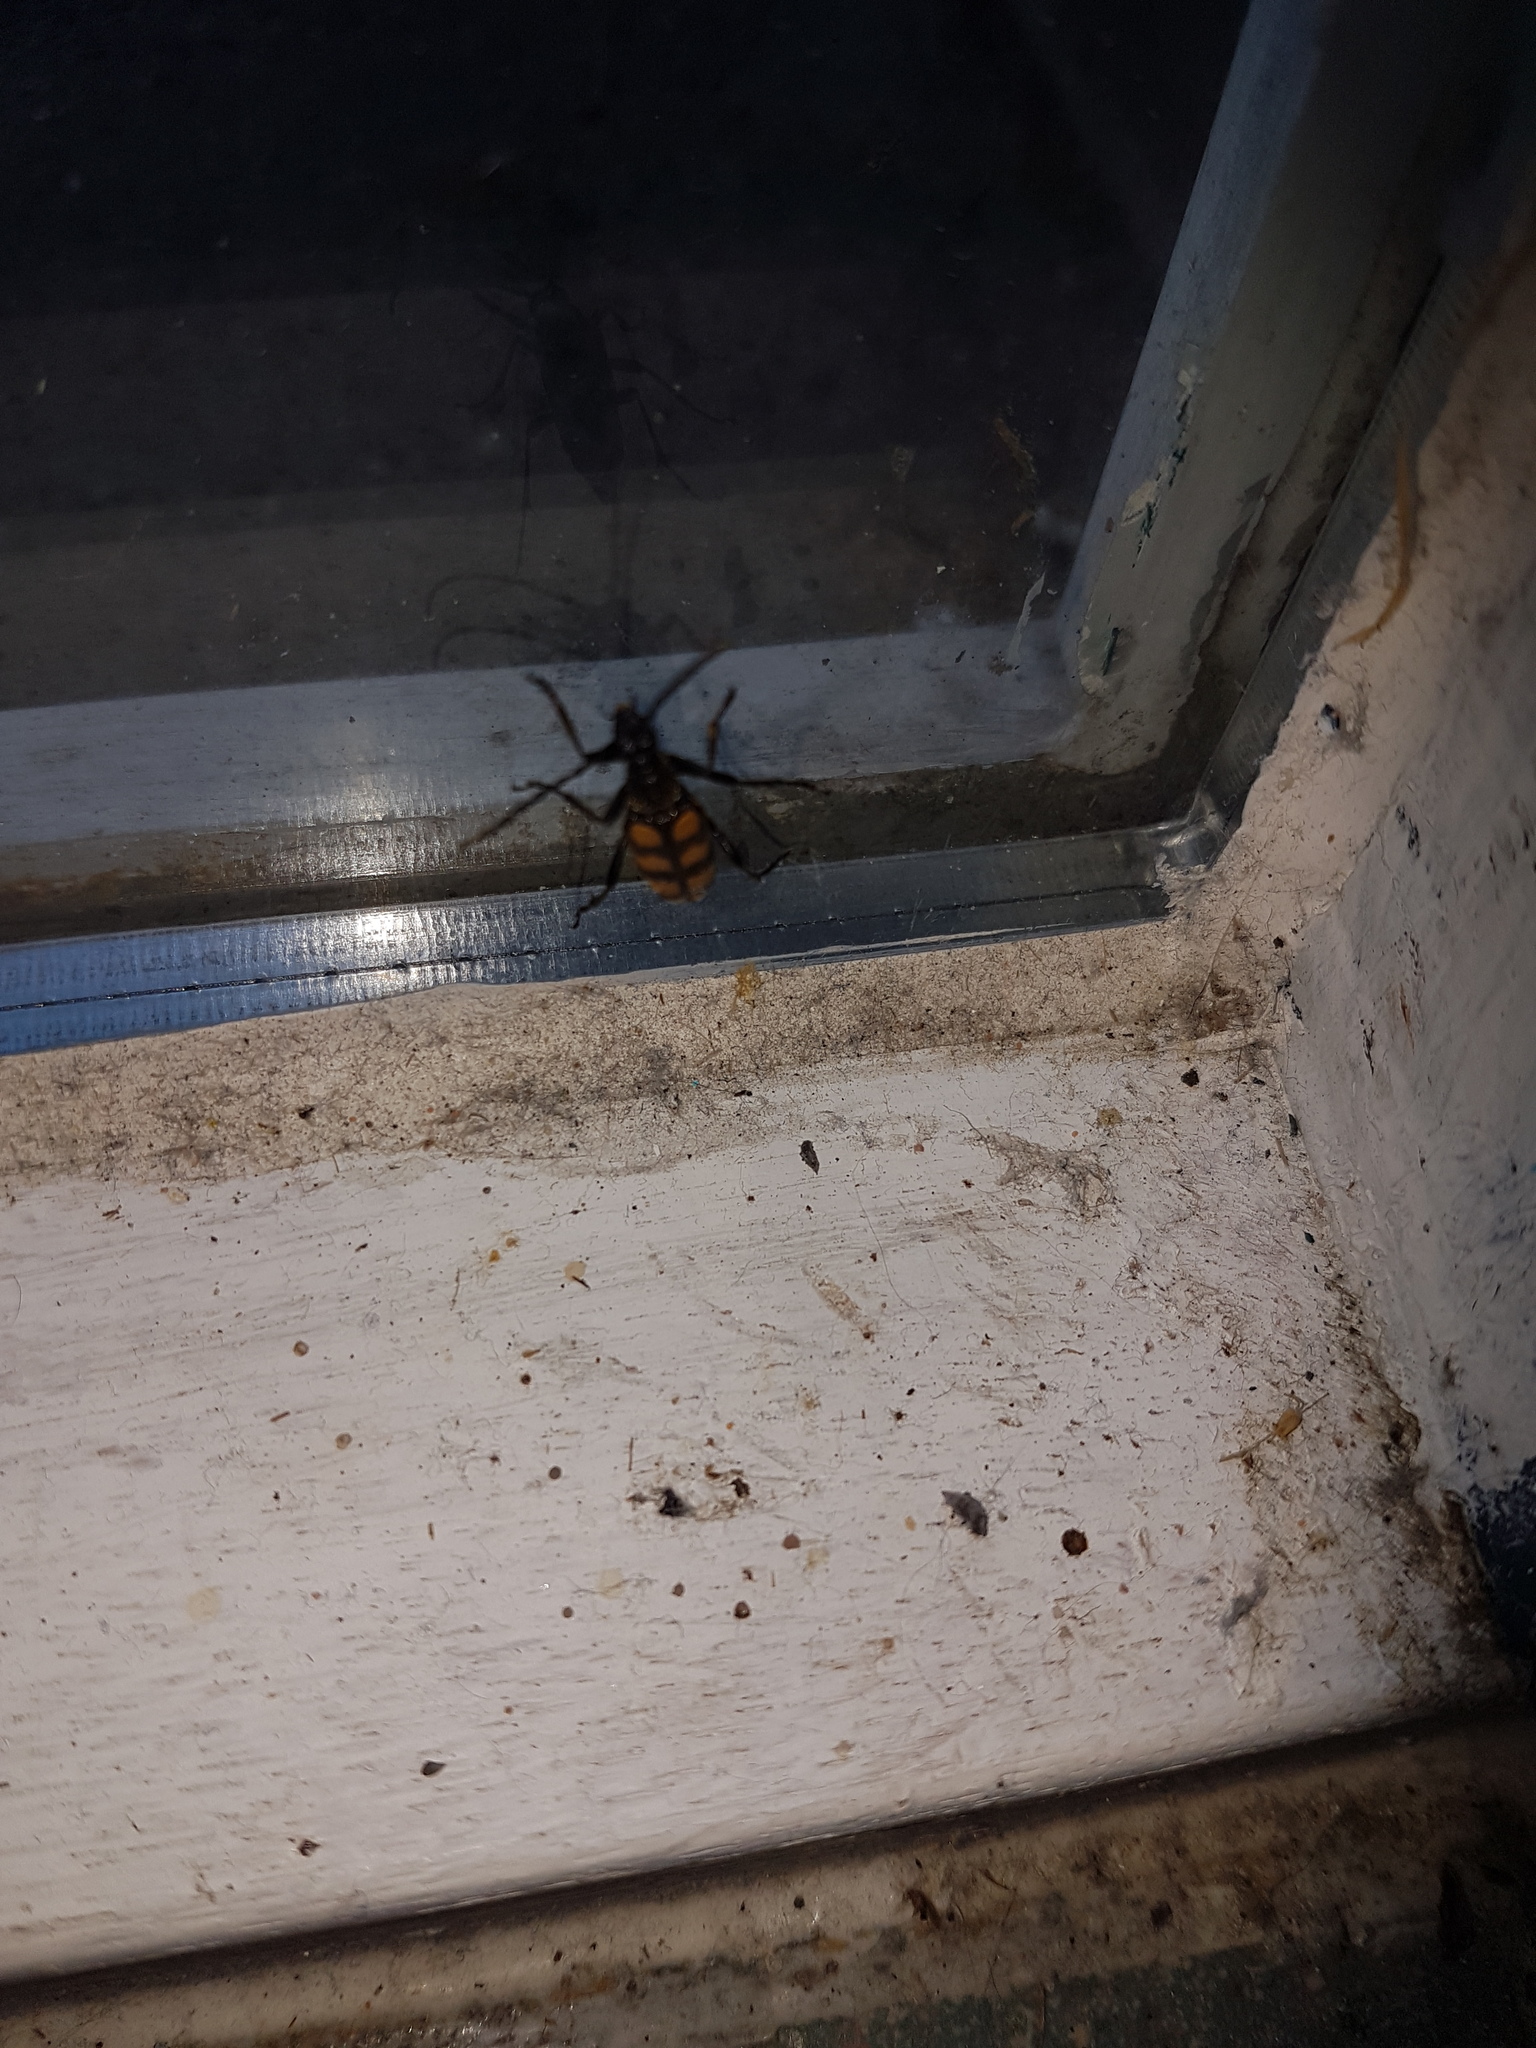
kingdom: Animalia
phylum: Arthropoda
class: Insecta
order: Coleoptera
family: Cerambycidae
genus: Leptura
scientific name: Leptura quadrifasciata
